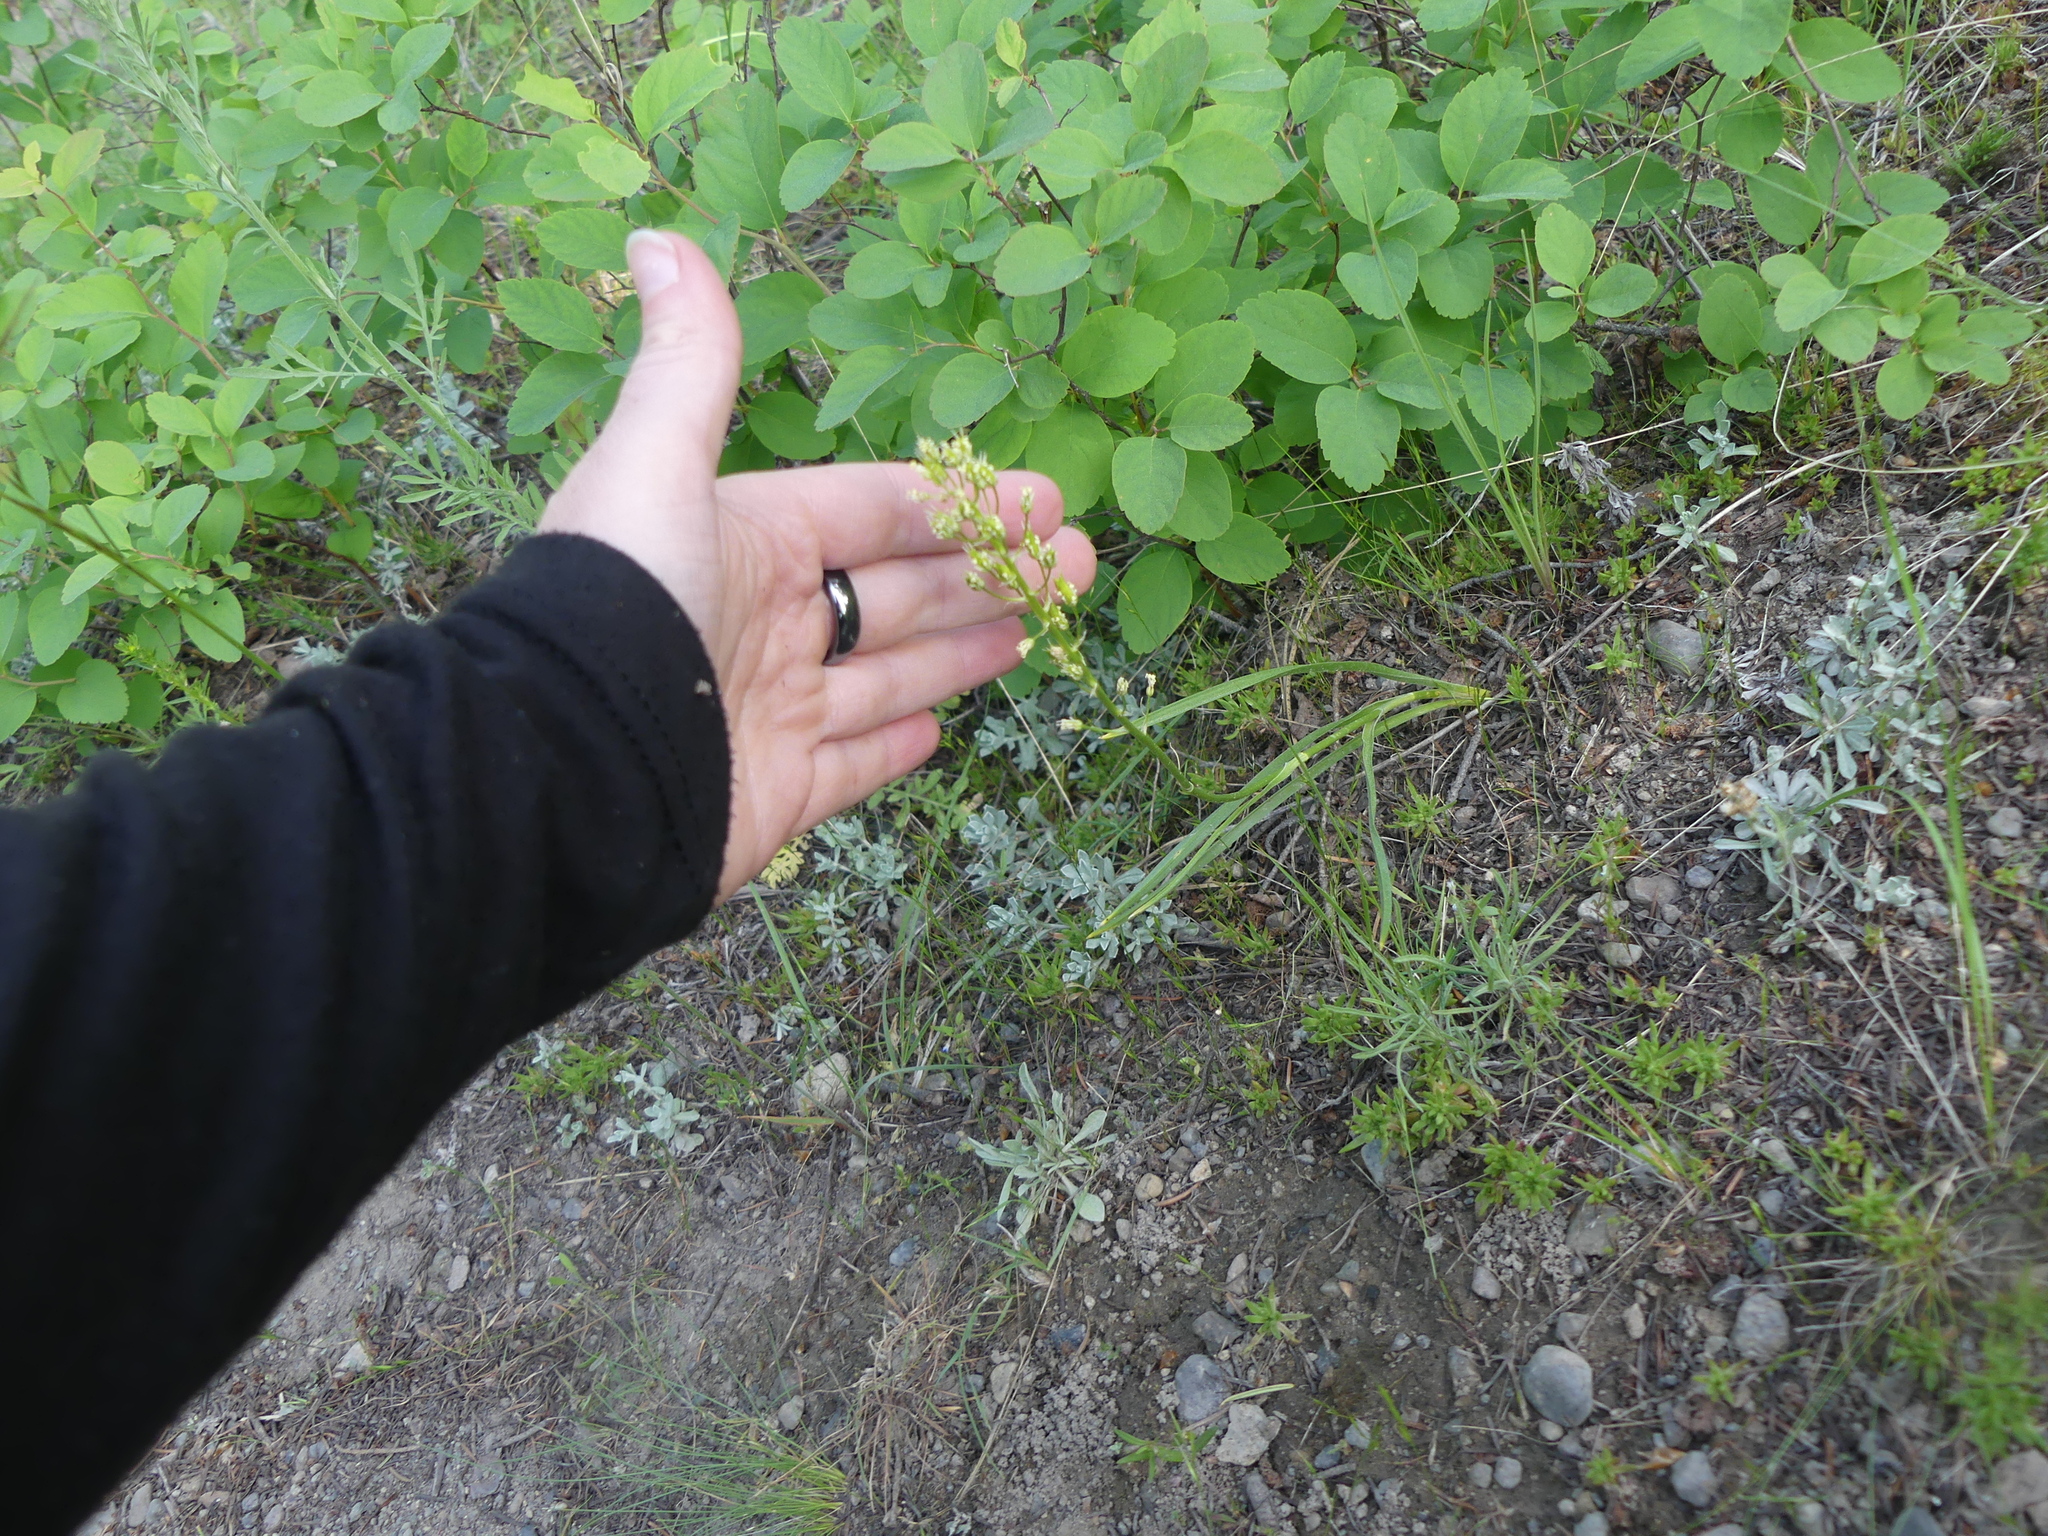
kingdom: Plantae
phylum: Tracheophyta
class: Liliopsida
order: Liliales
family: Melanthiaceae
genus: Toxicoscordion
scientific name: Toxicoscordion venenosum
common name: Meadow death camas
